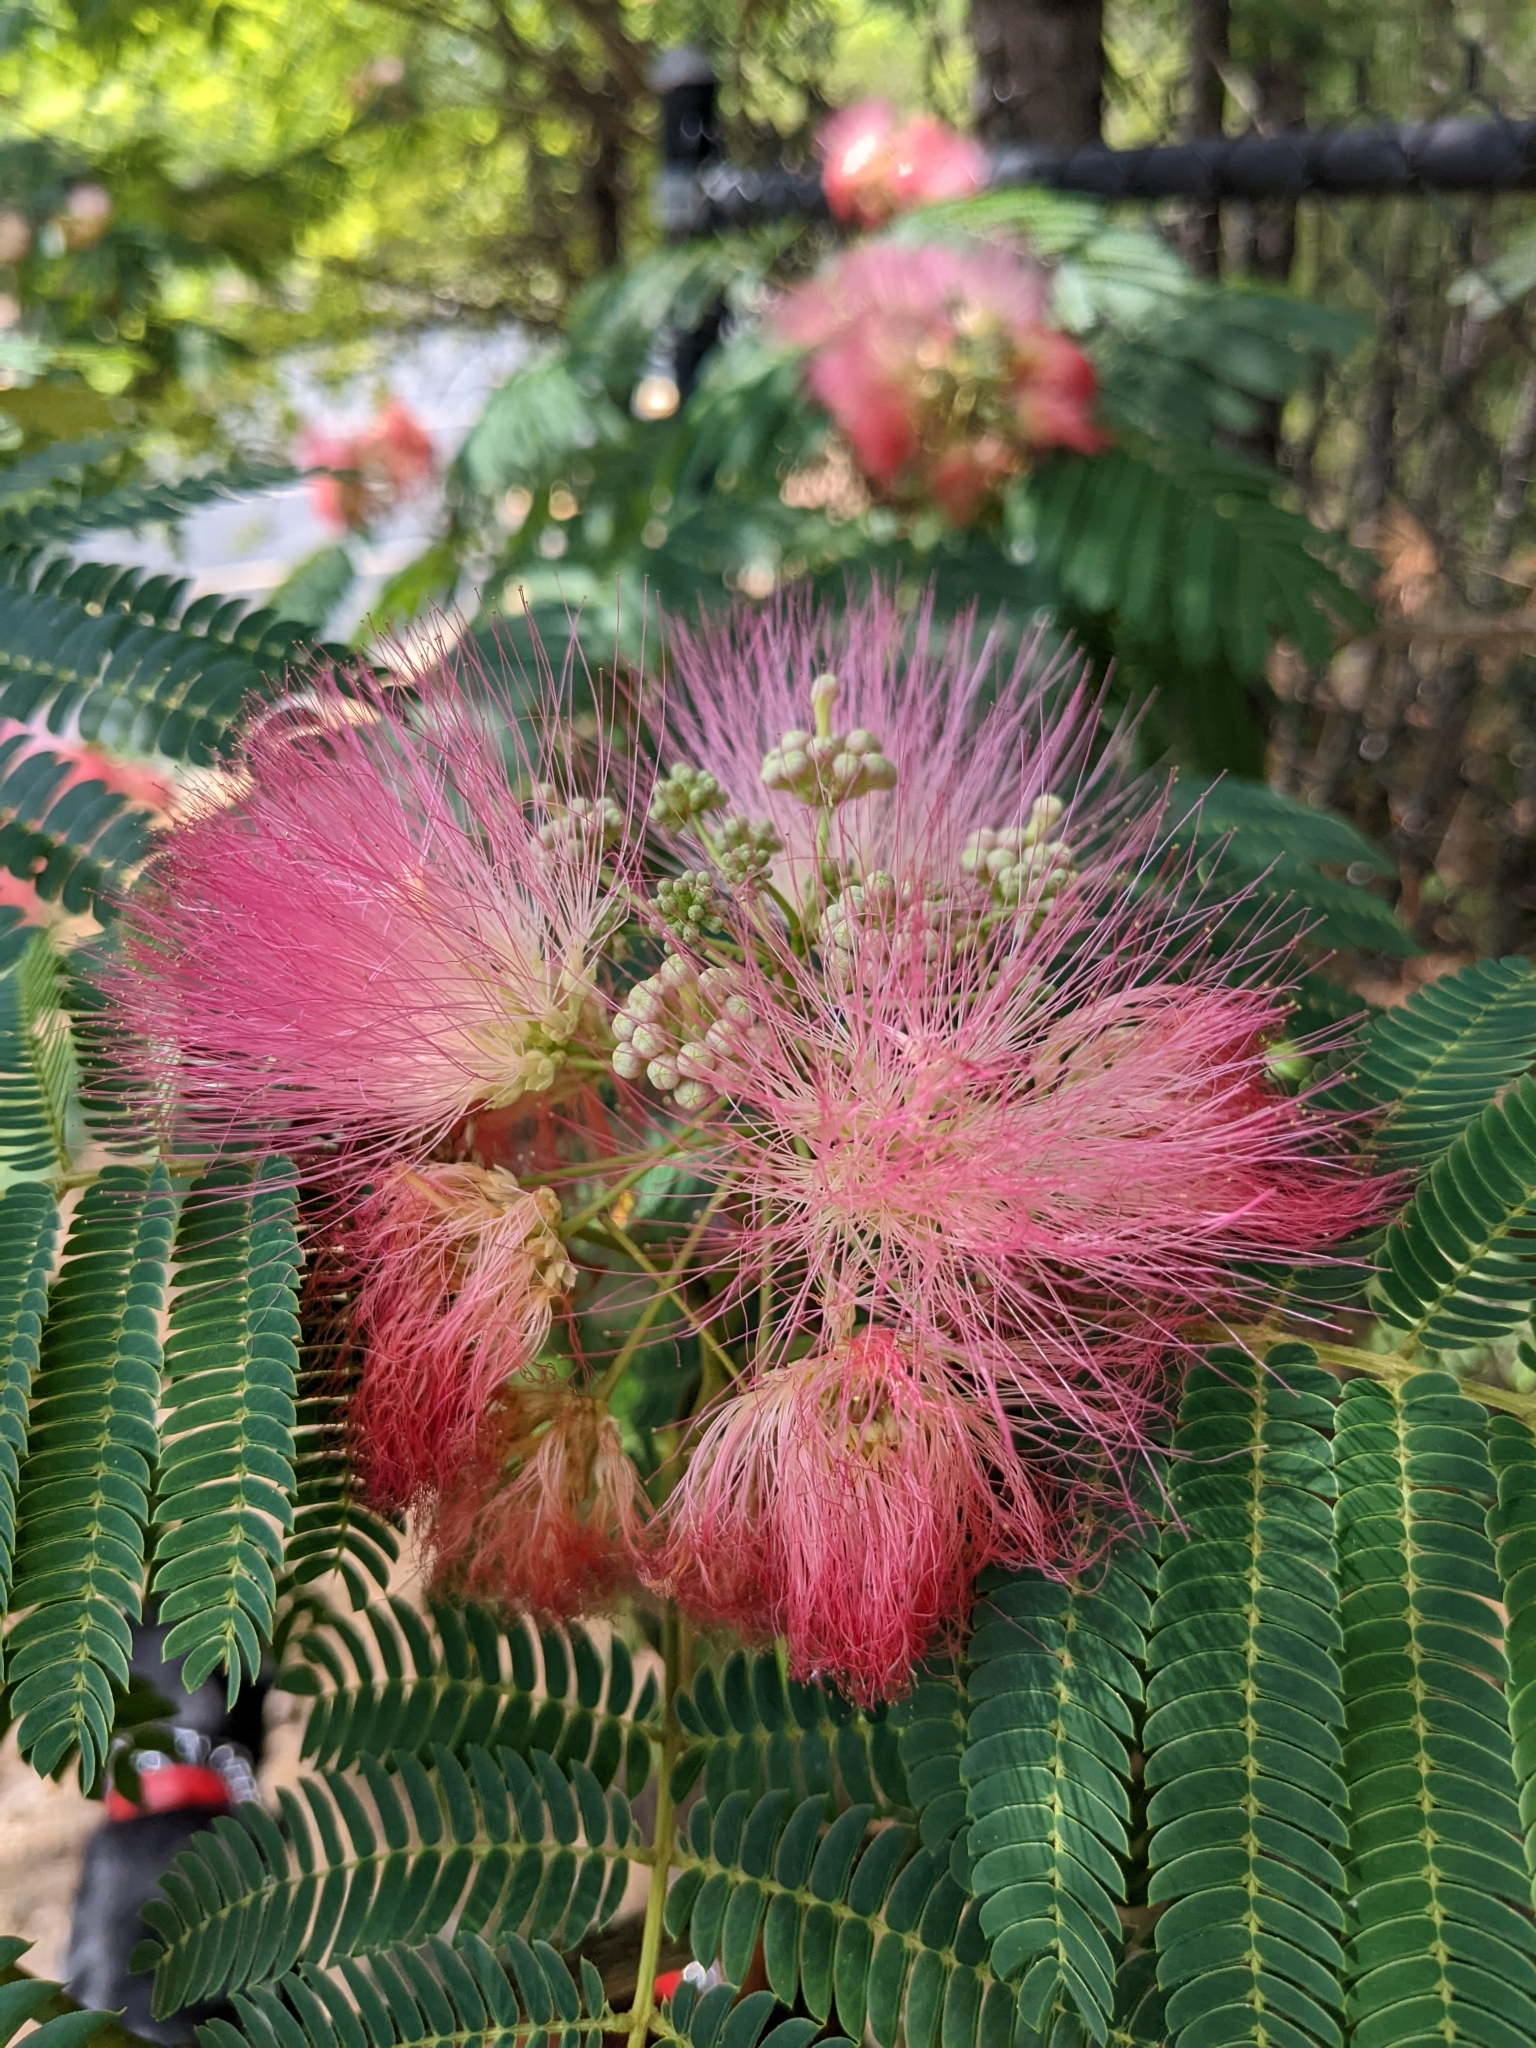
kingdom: Plantae
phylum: Tracheophyta
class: Magnoliopsida
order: Fabales
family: Fabaceae
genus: Albizia
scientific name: Albizia julibrissin
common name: Silktree
